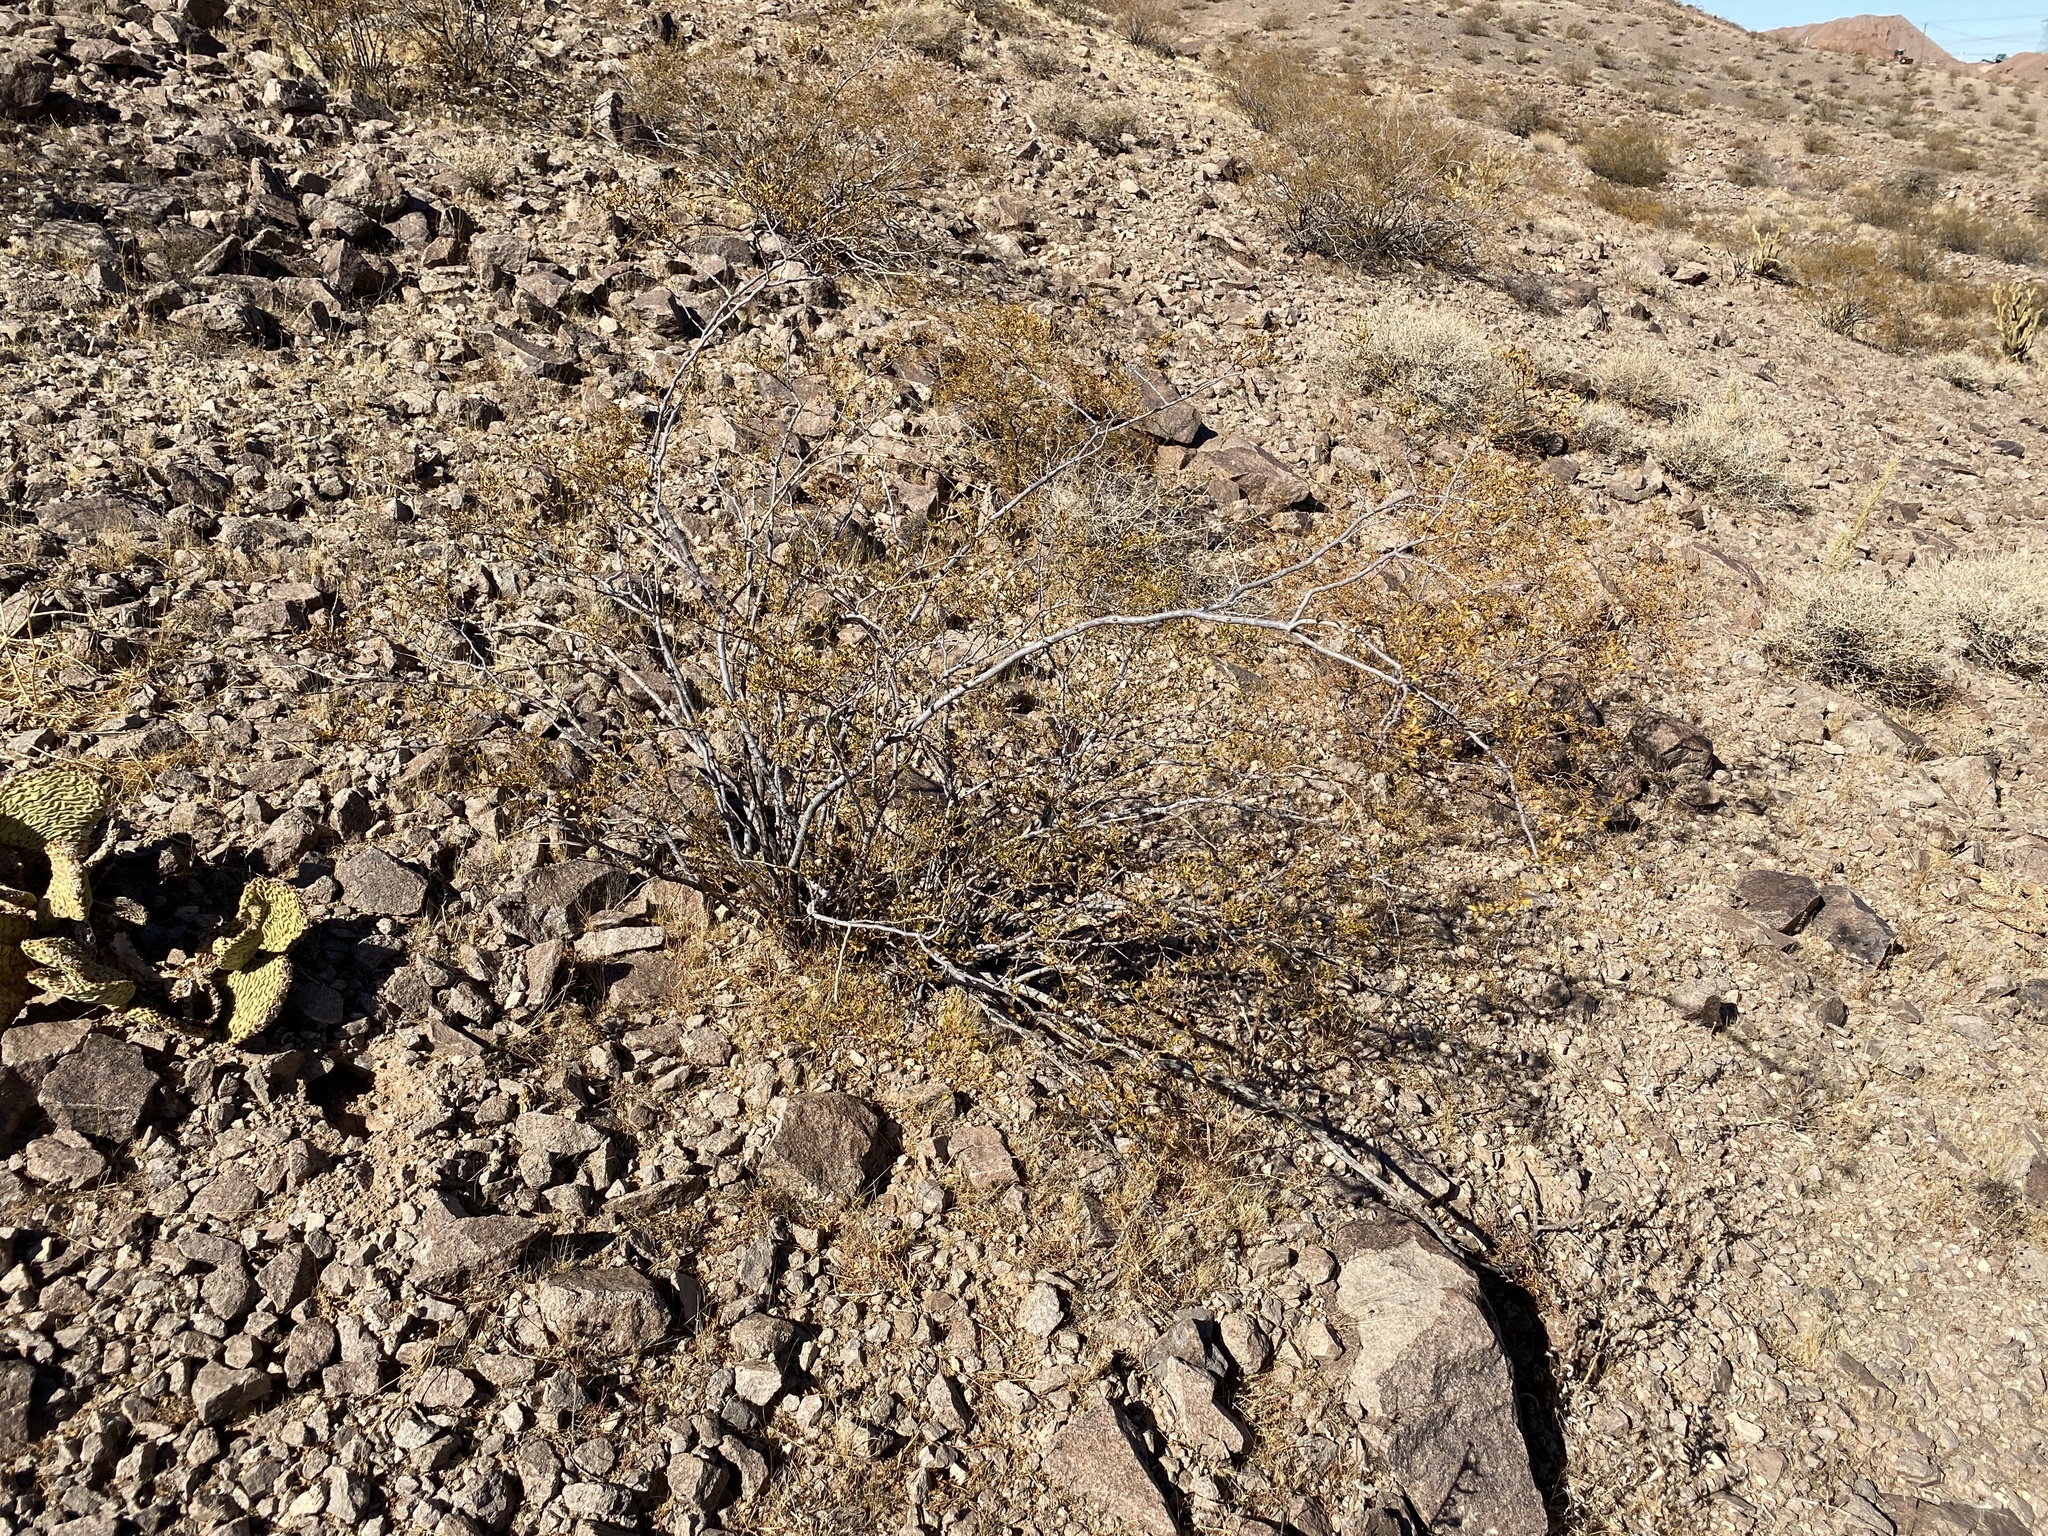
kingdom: Plantae
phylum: Tracheophyta
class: Magnoliopsida
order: Zygophyllales
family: Zygophyllaceae
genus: Larrea
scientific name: Larrea tridentata
